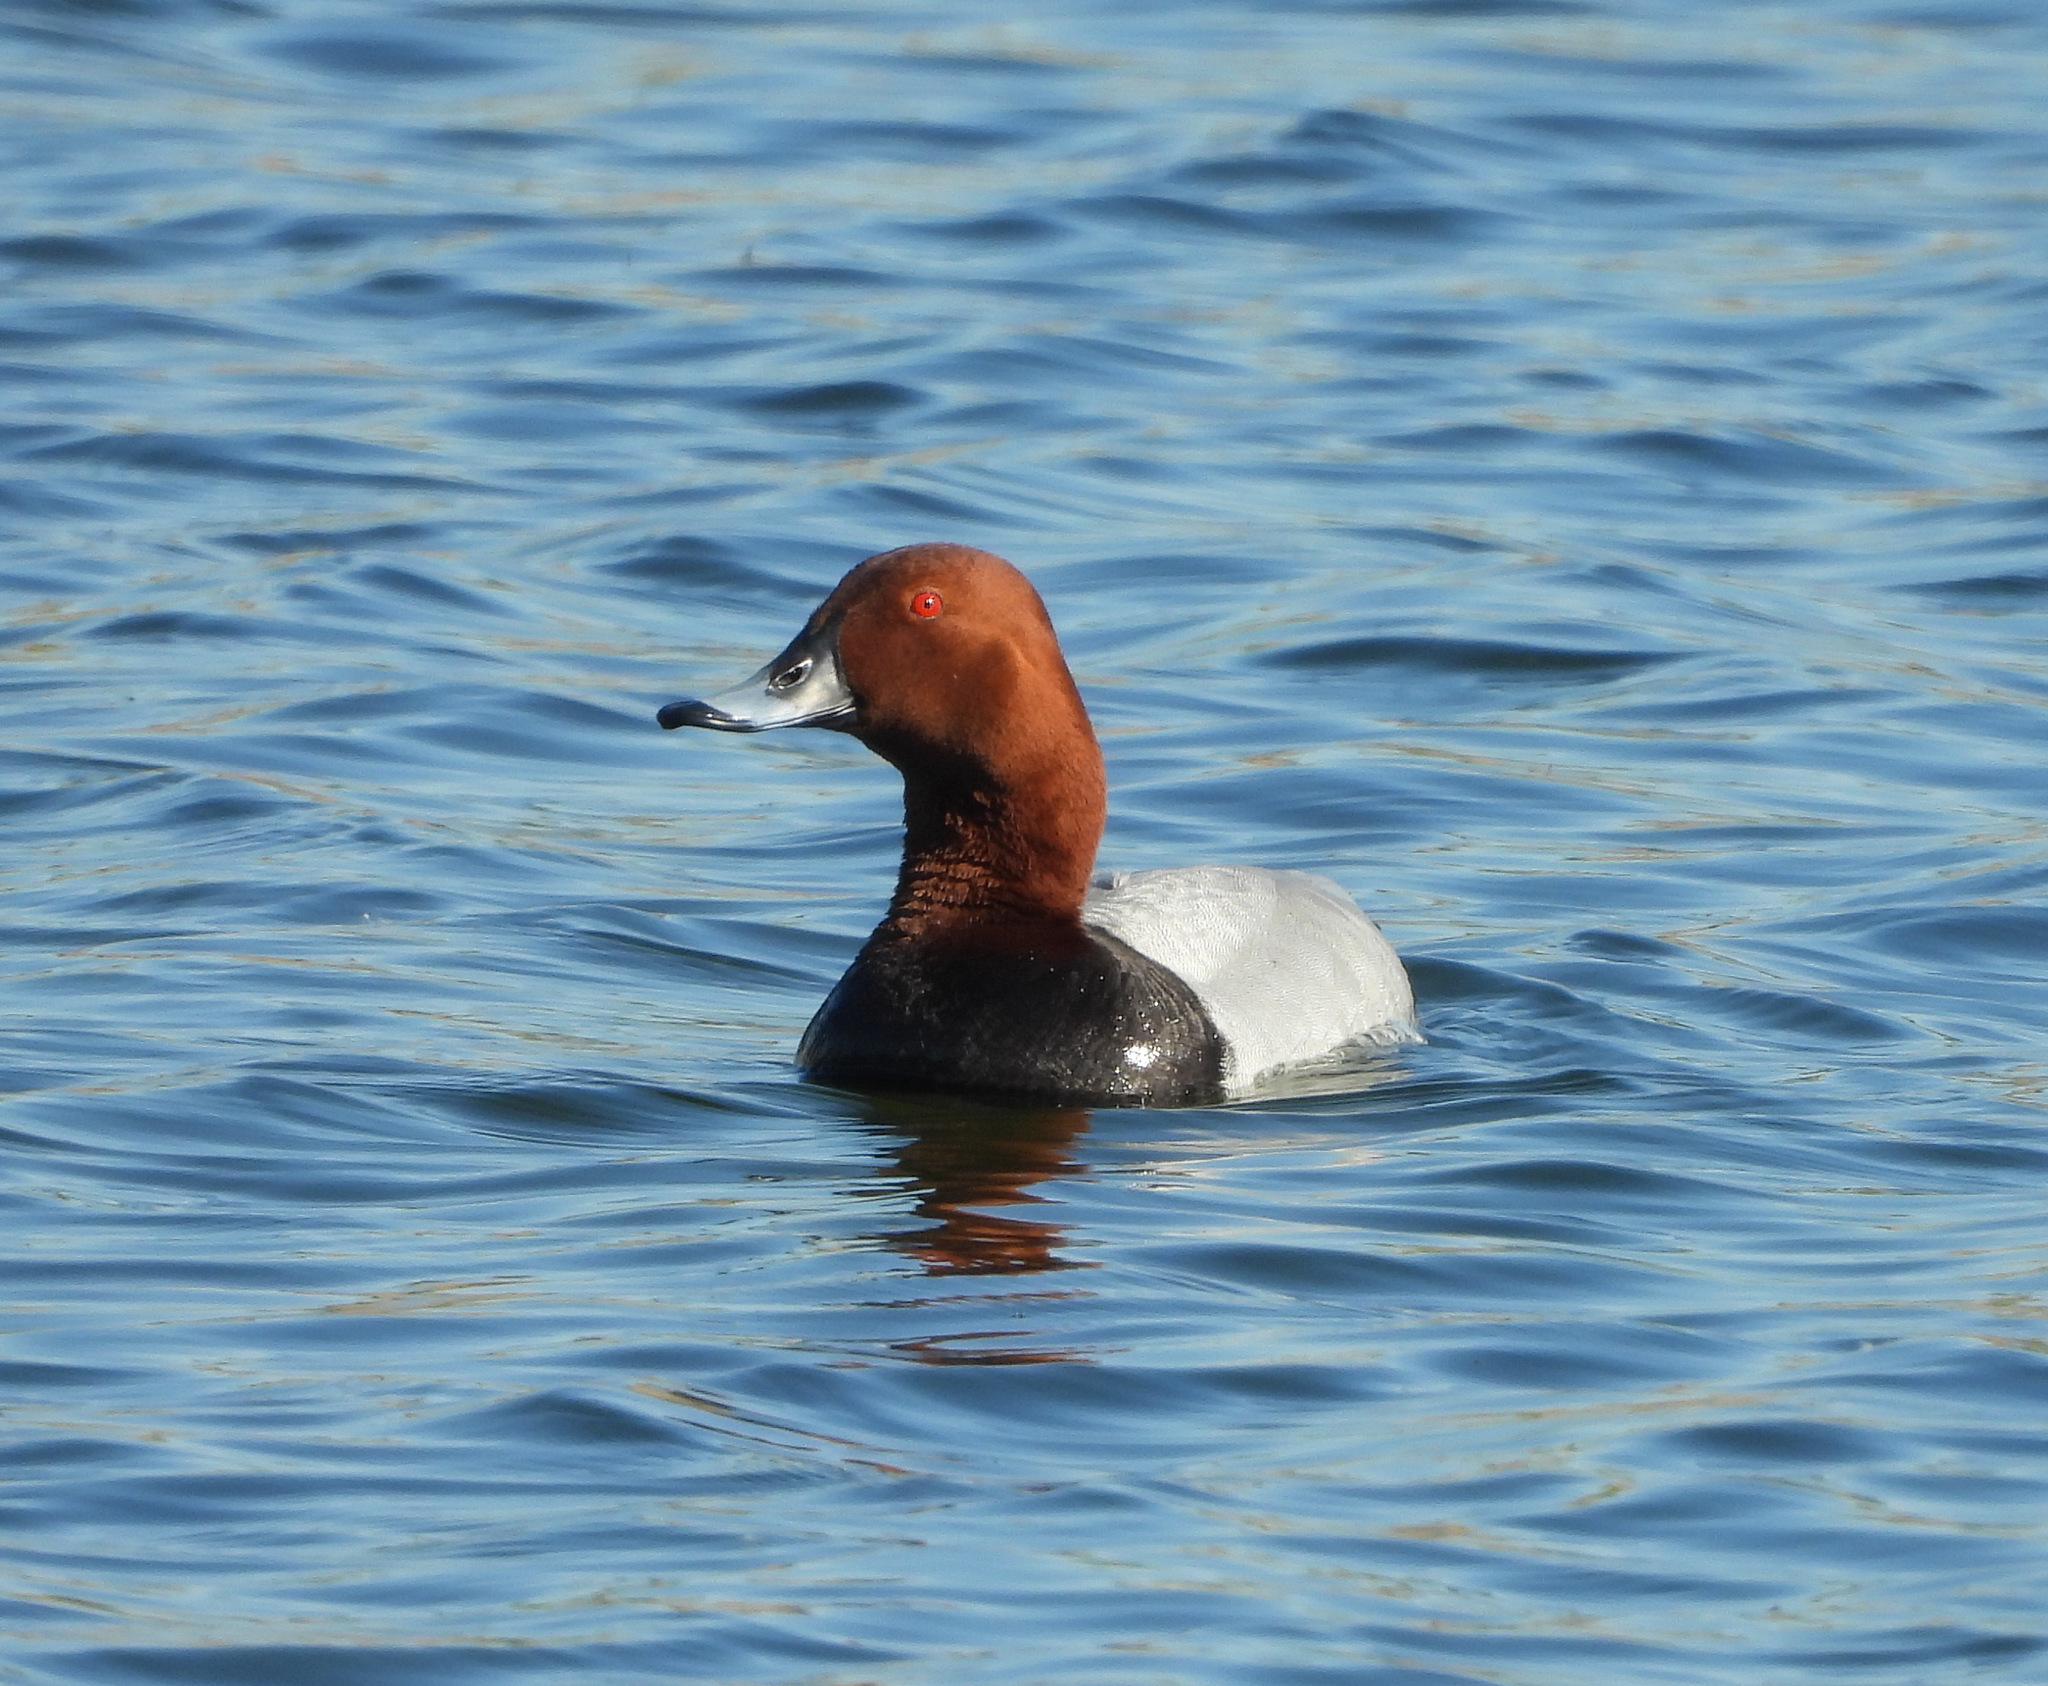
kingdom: Animalia
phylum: Chordata
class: Aves
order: Anseriformes
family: Anatidae
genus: Aythya
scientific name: Aythya ferina
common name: Common pochard
